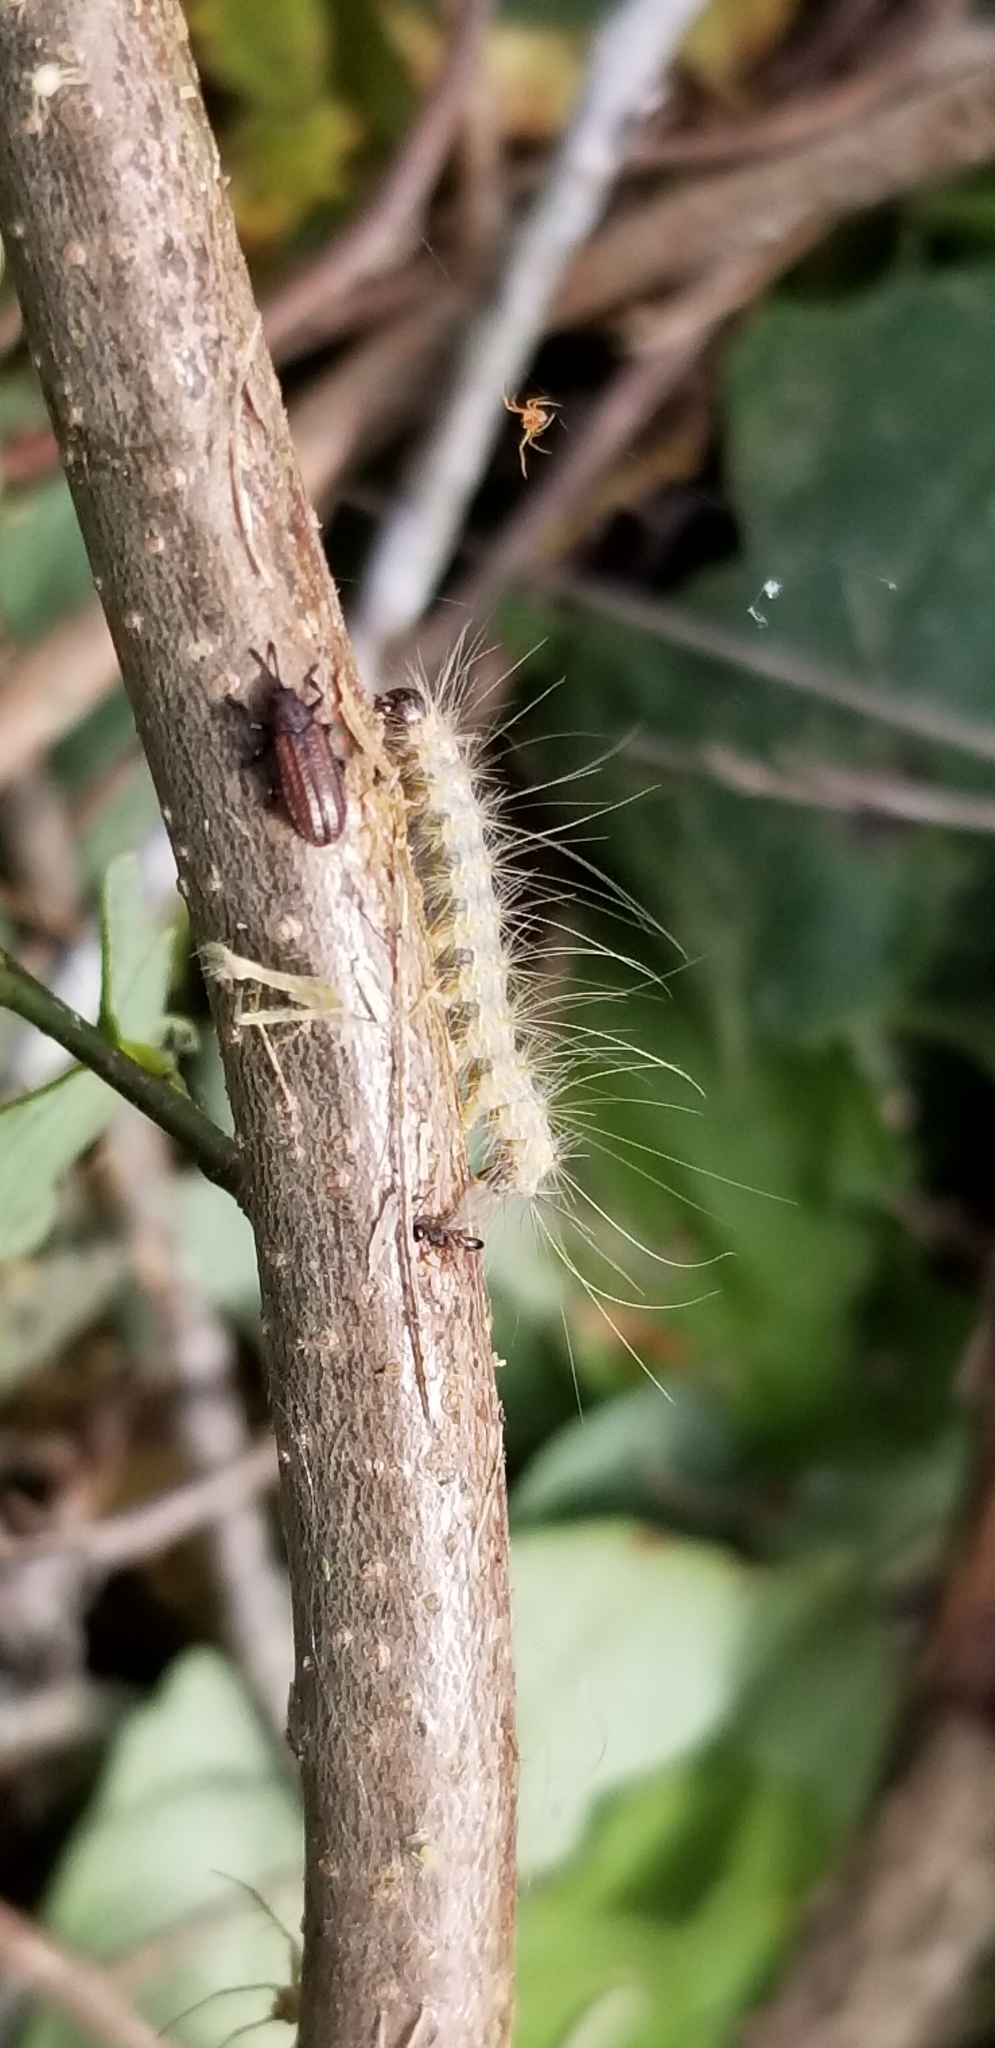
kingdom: Animalia
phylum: Arthropoda
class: Insecta
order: Lepidoptera
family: Erebidae
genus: Hyphantria
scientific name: Hyphantria cunea
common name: American white moth
